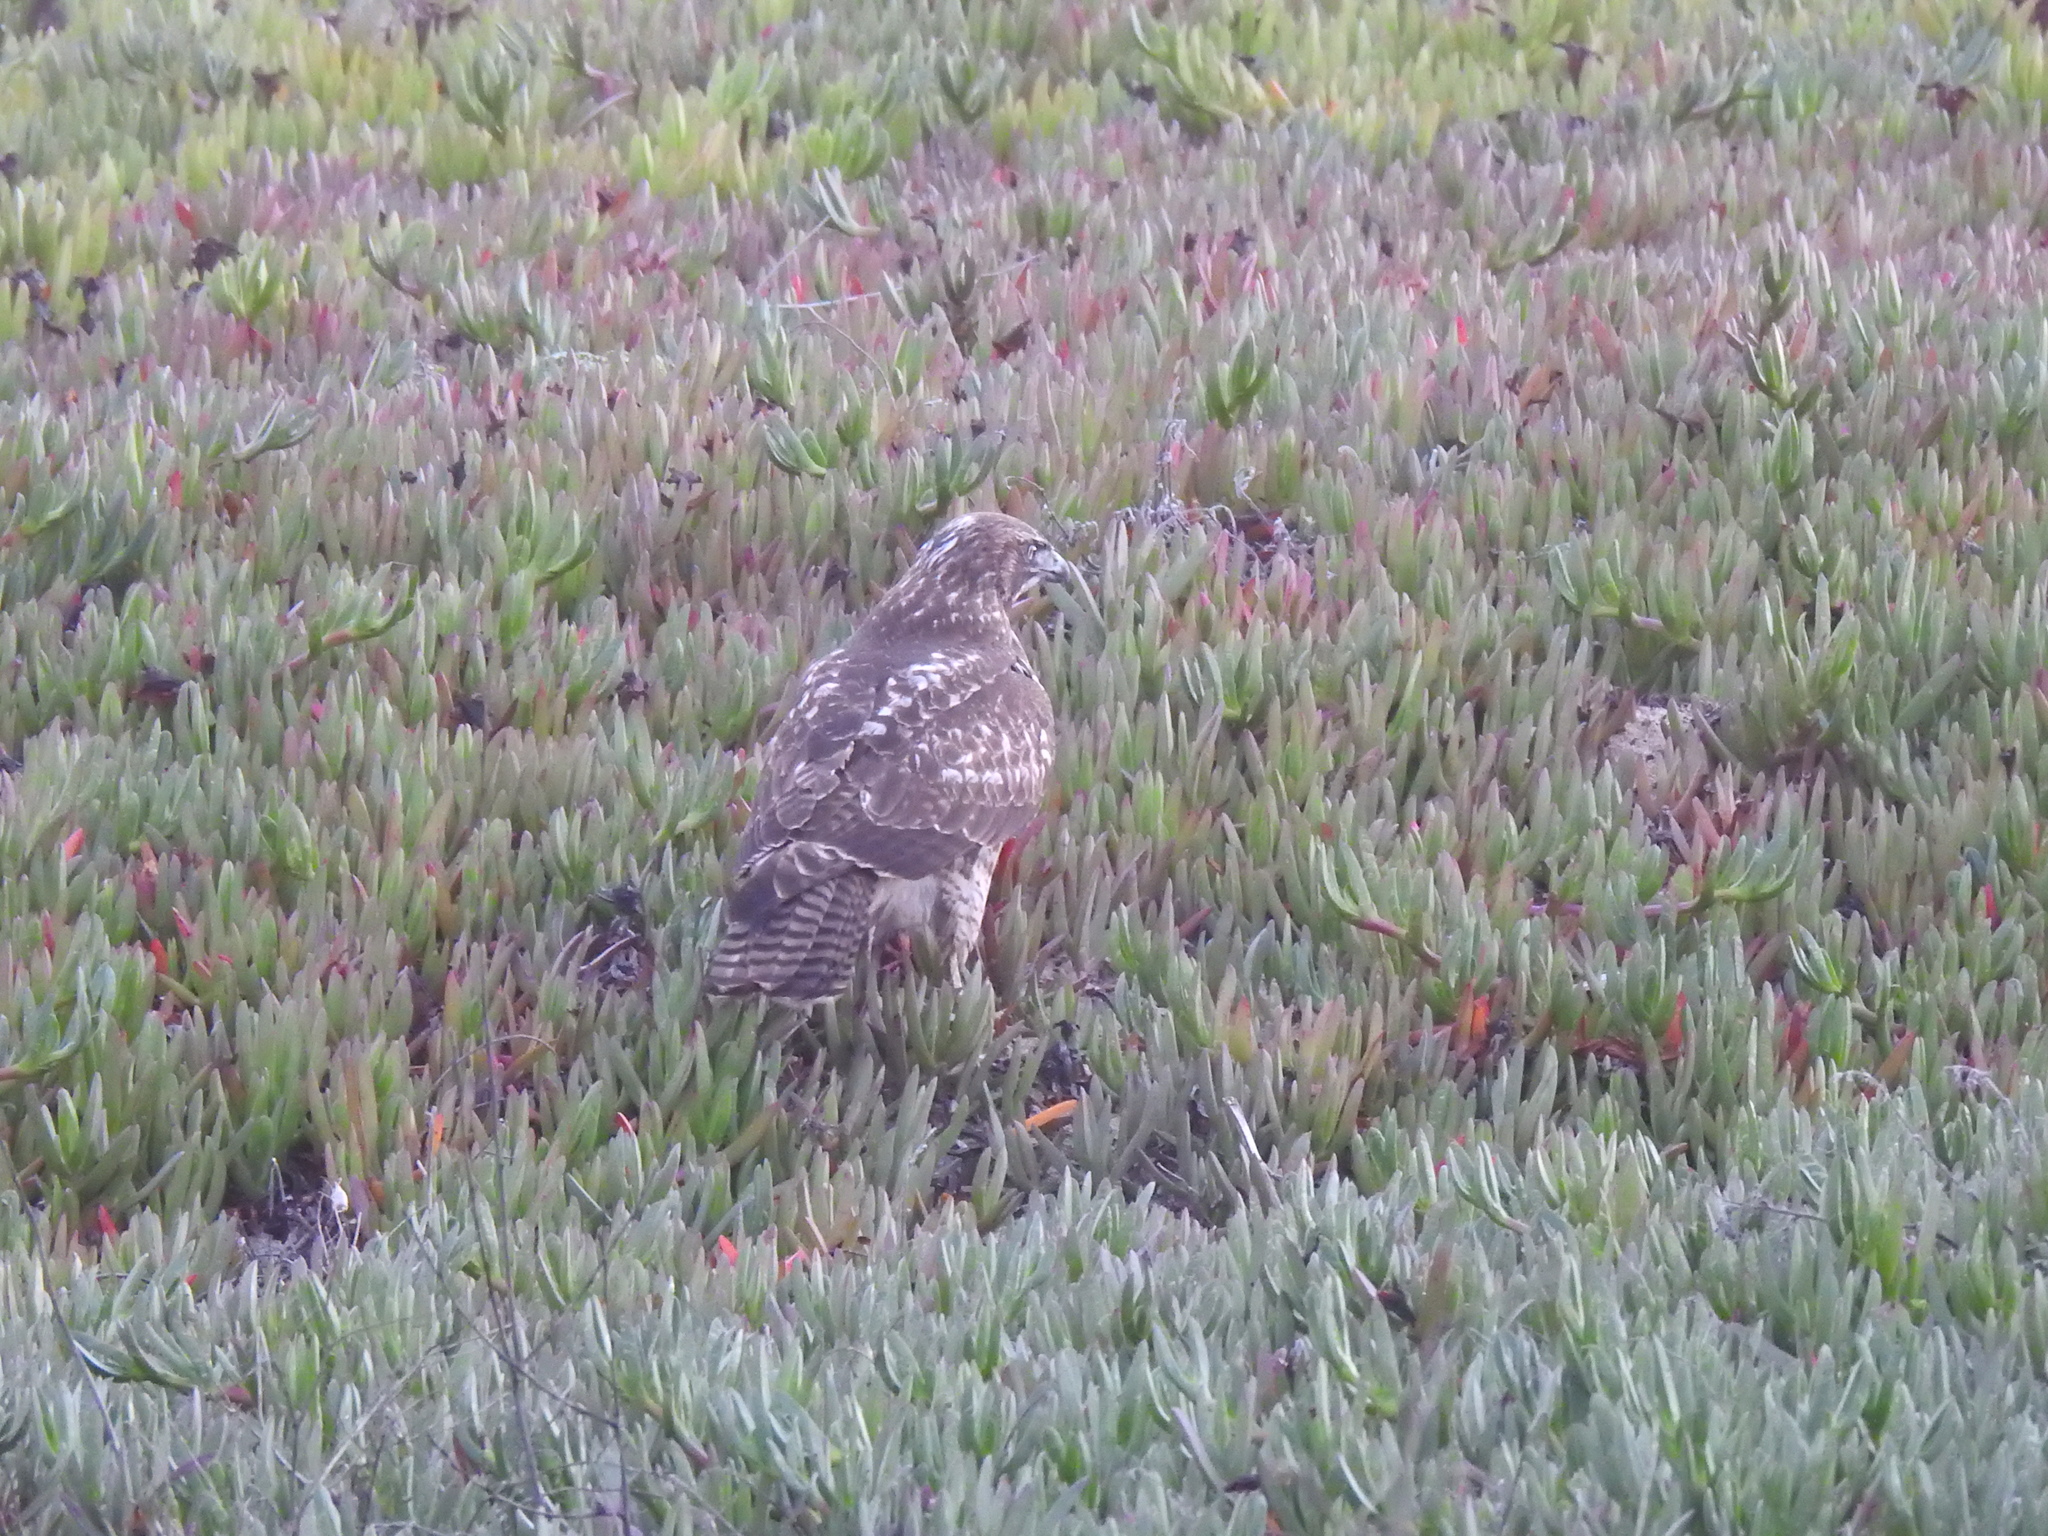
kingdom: Animalia
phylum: Chordata
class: Aves
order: Accipitriformes
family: Accipitridae
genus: Buteo
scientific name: Buteo jamaicensis
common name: Red-tailed hawk
